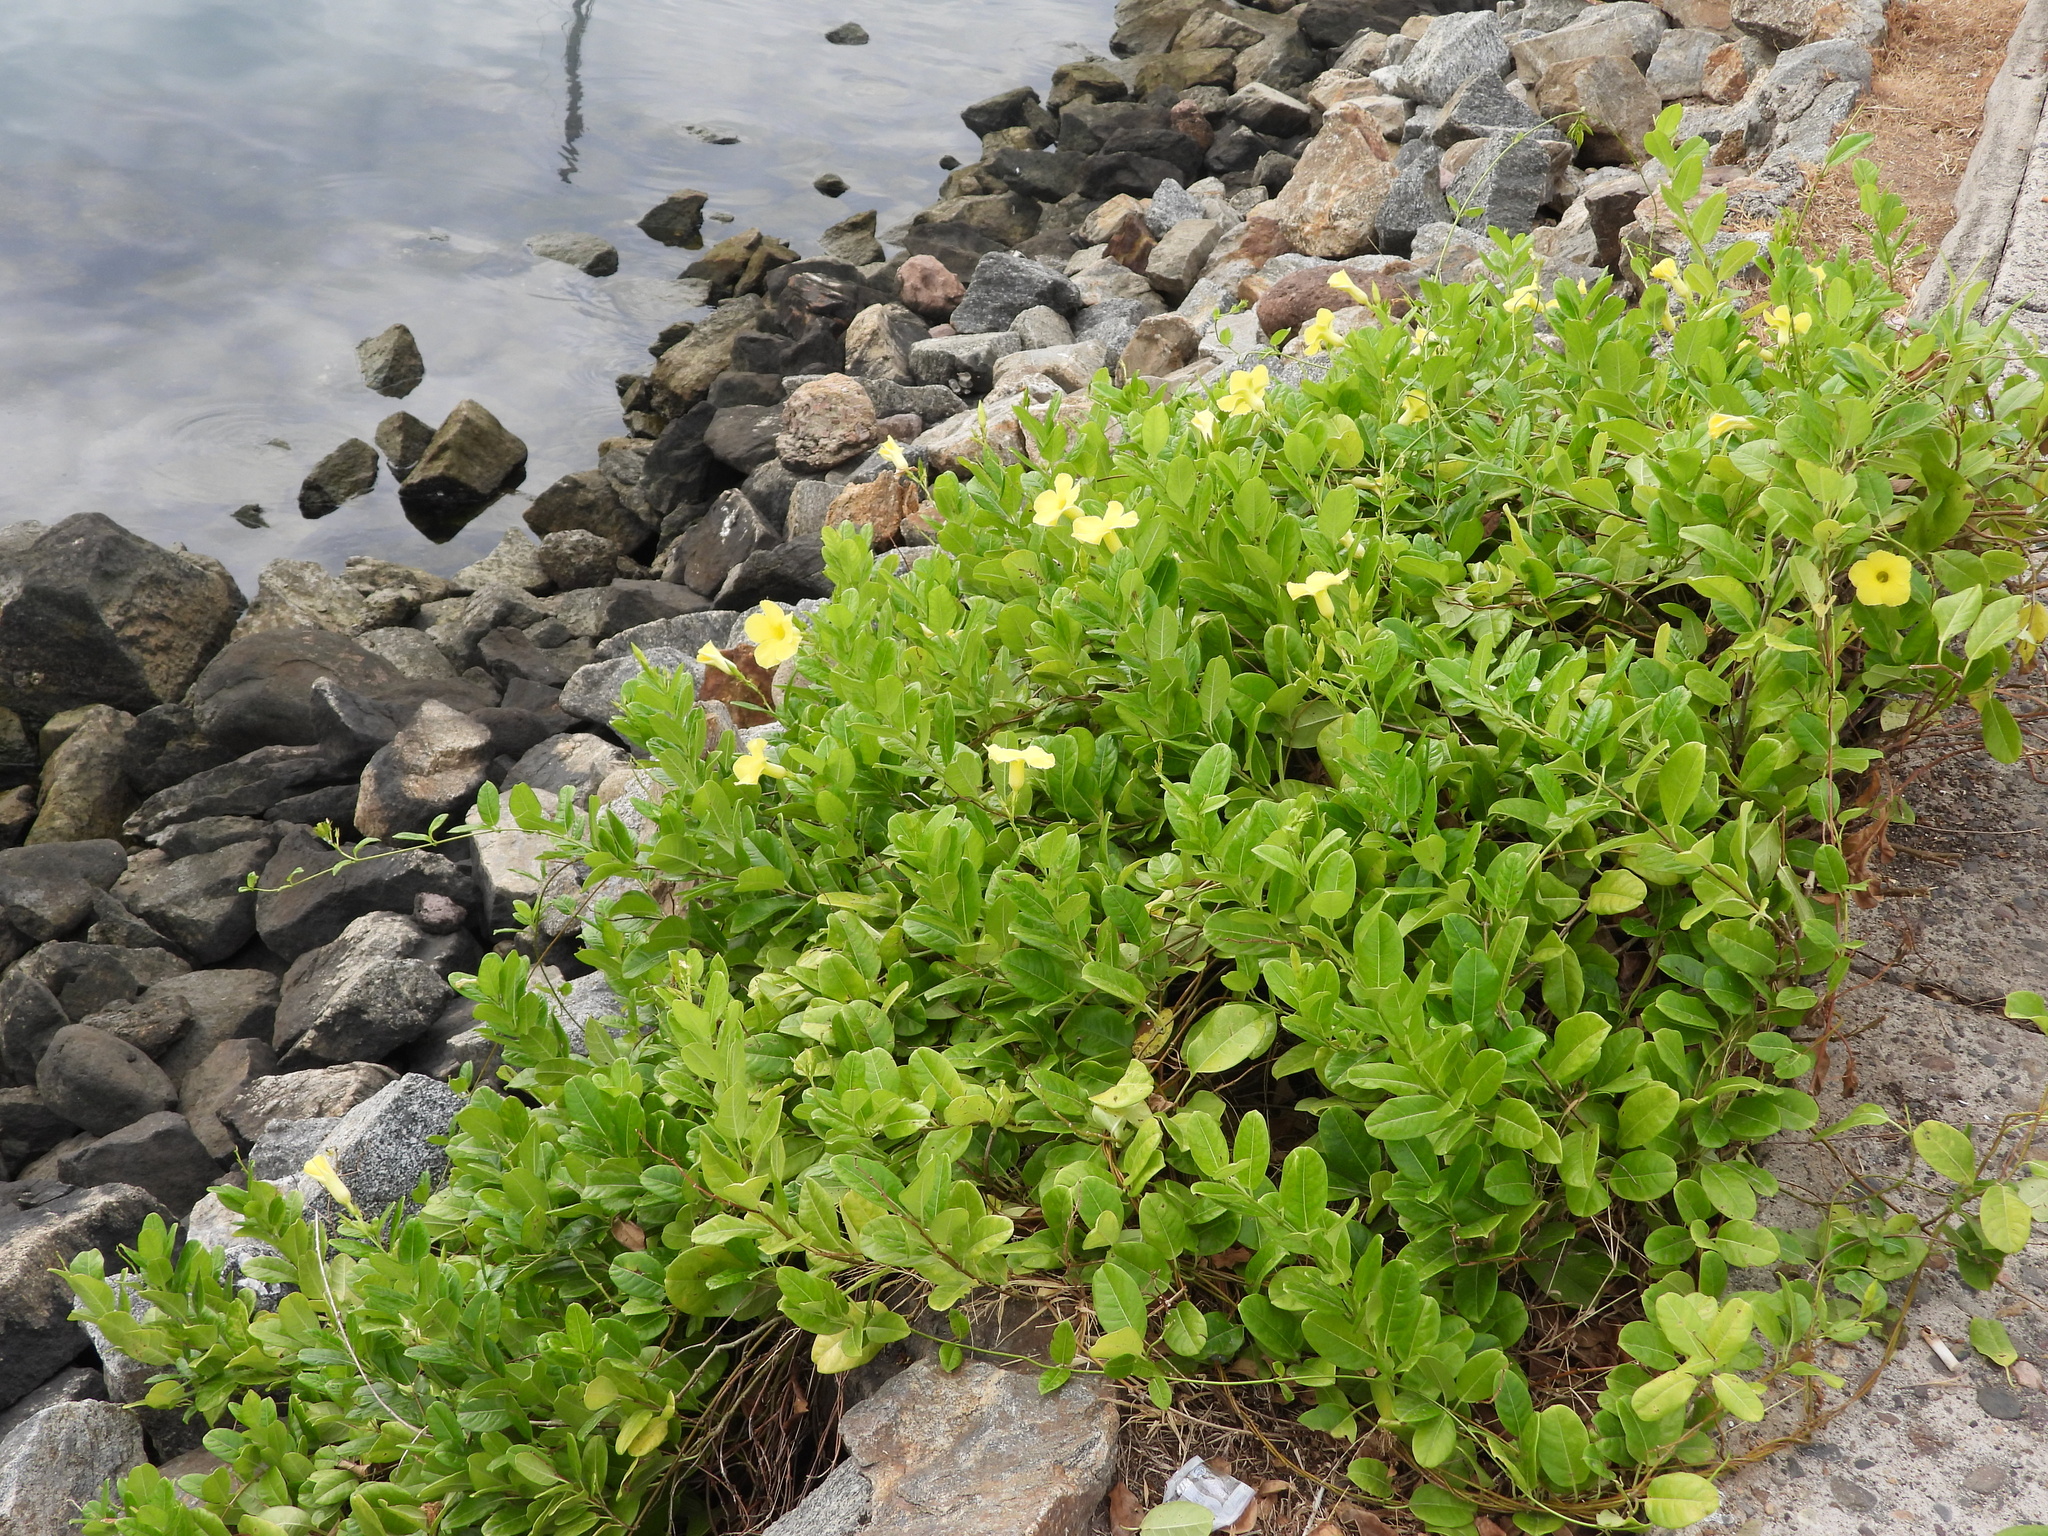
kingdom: Plantae
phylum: Tracheophyta
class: Magnoliopsida
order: Gentianales
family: Apocynaceae
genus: Pentalinon
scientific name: Pentalinon luteum
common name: Licebush
